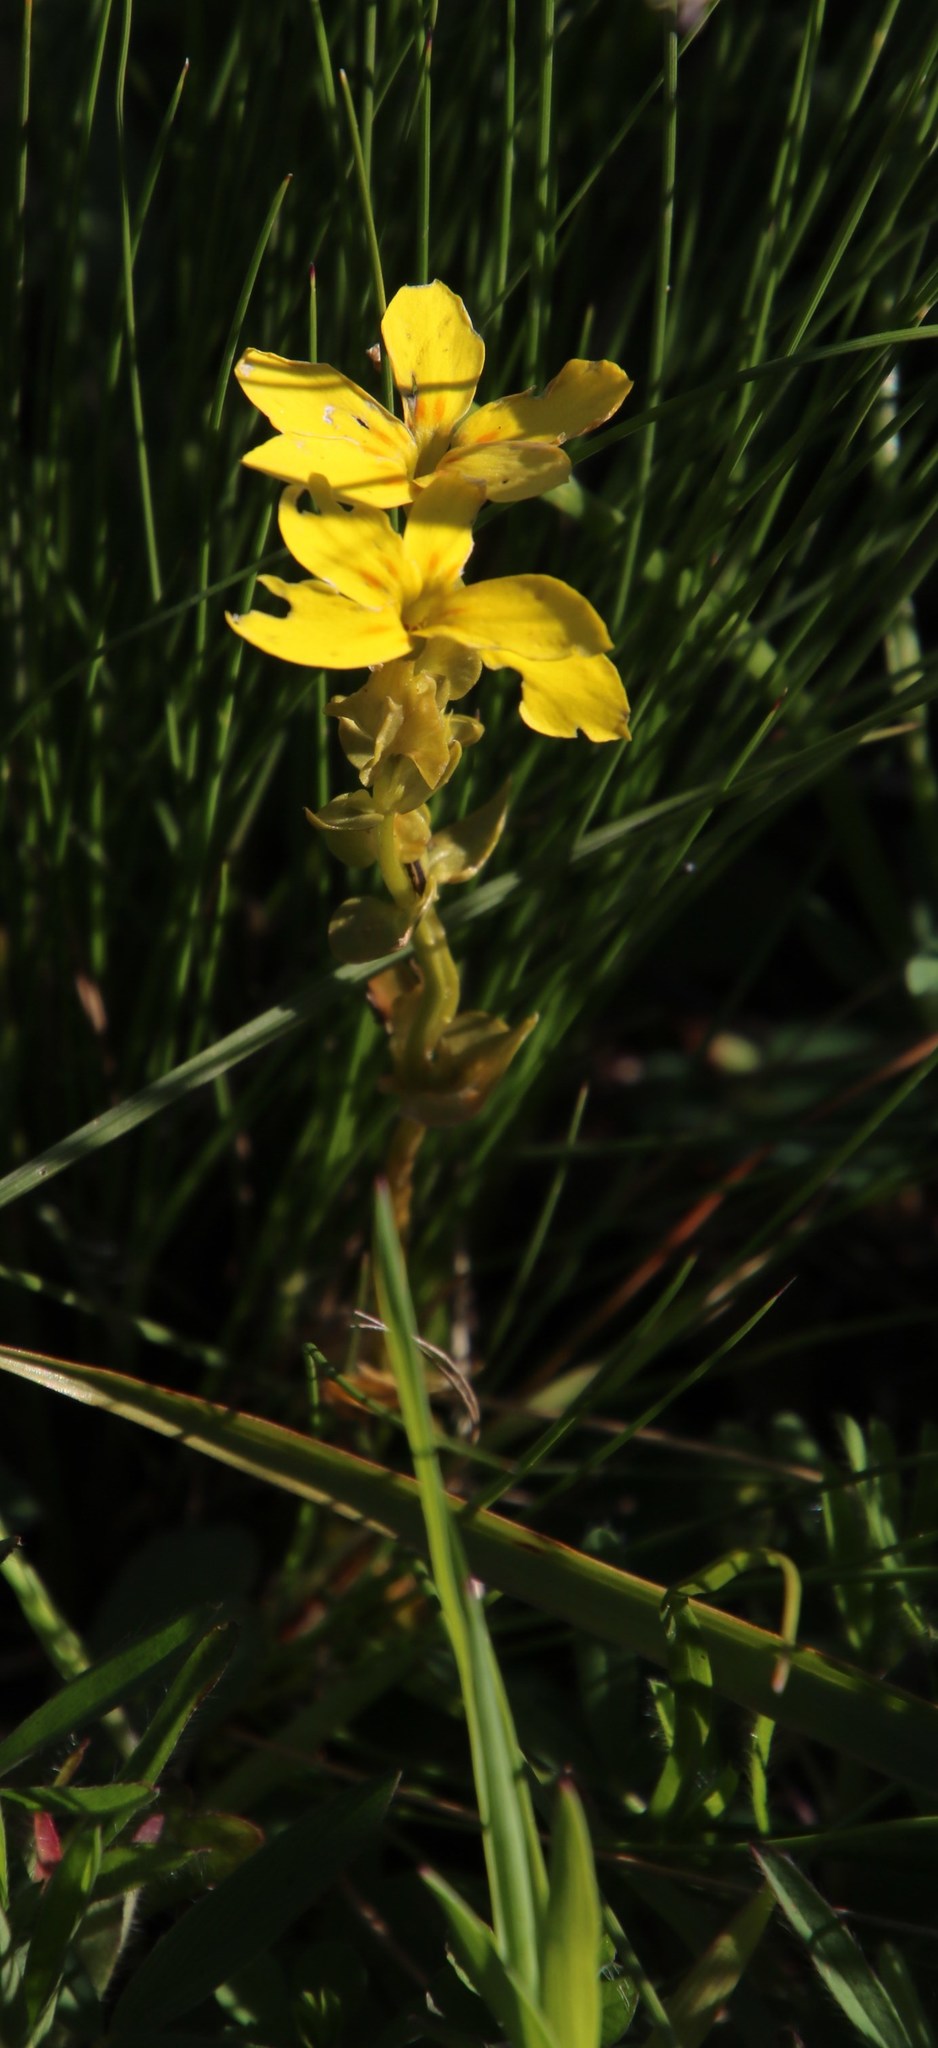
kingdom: Plantae
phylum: Tracheophyta
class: Magnoliopsida
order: Gentianales
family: Gentianaceae
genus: Sebaea
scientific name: Sebaea exacoides
